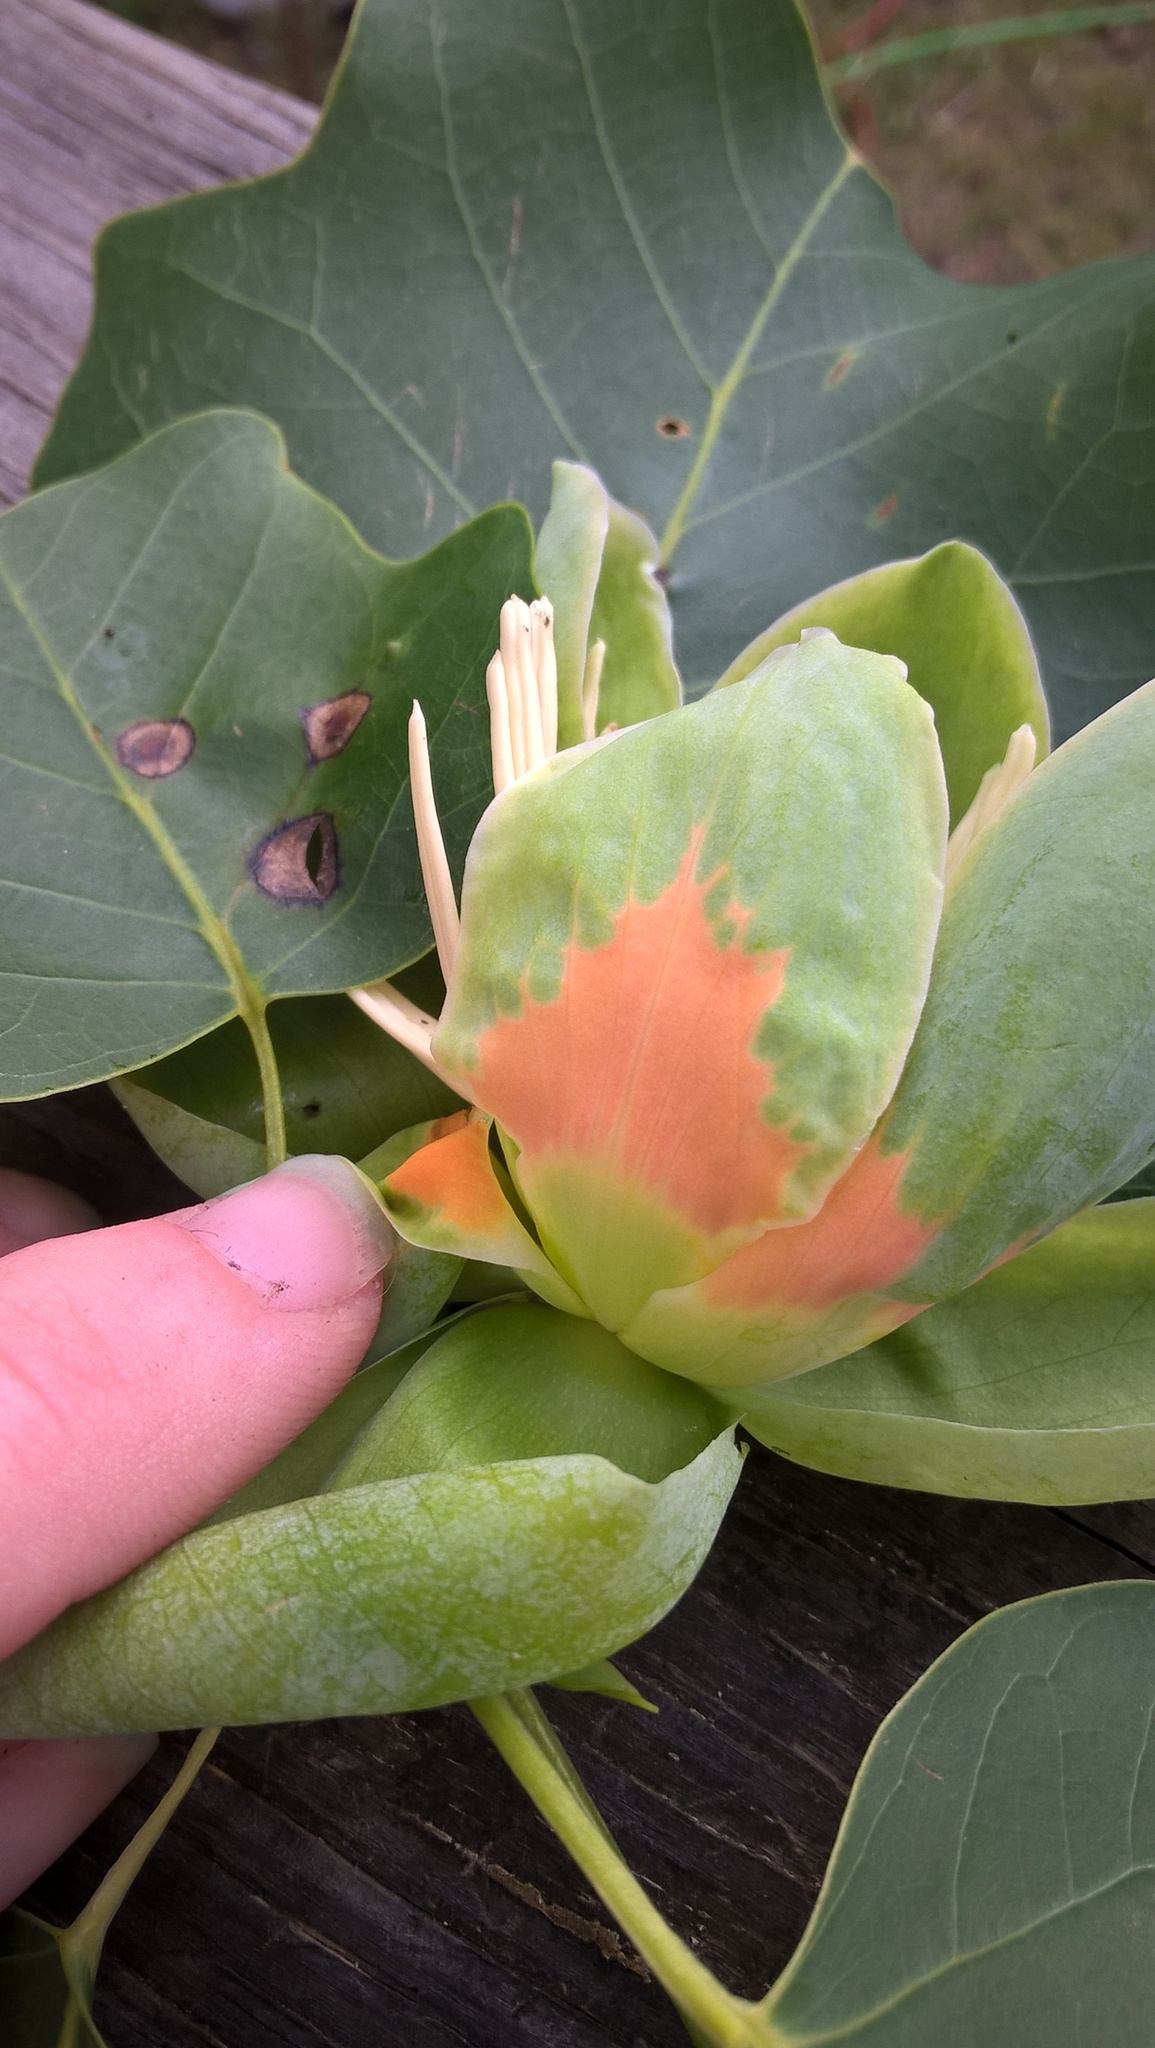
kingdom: Plantae
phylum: Tracheophyta
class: Magnoliopsida
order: Magnoliales
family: Magnoliaceae
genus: Liriodendron
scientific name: Liriodendron tulipifera
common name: Tulip tree
